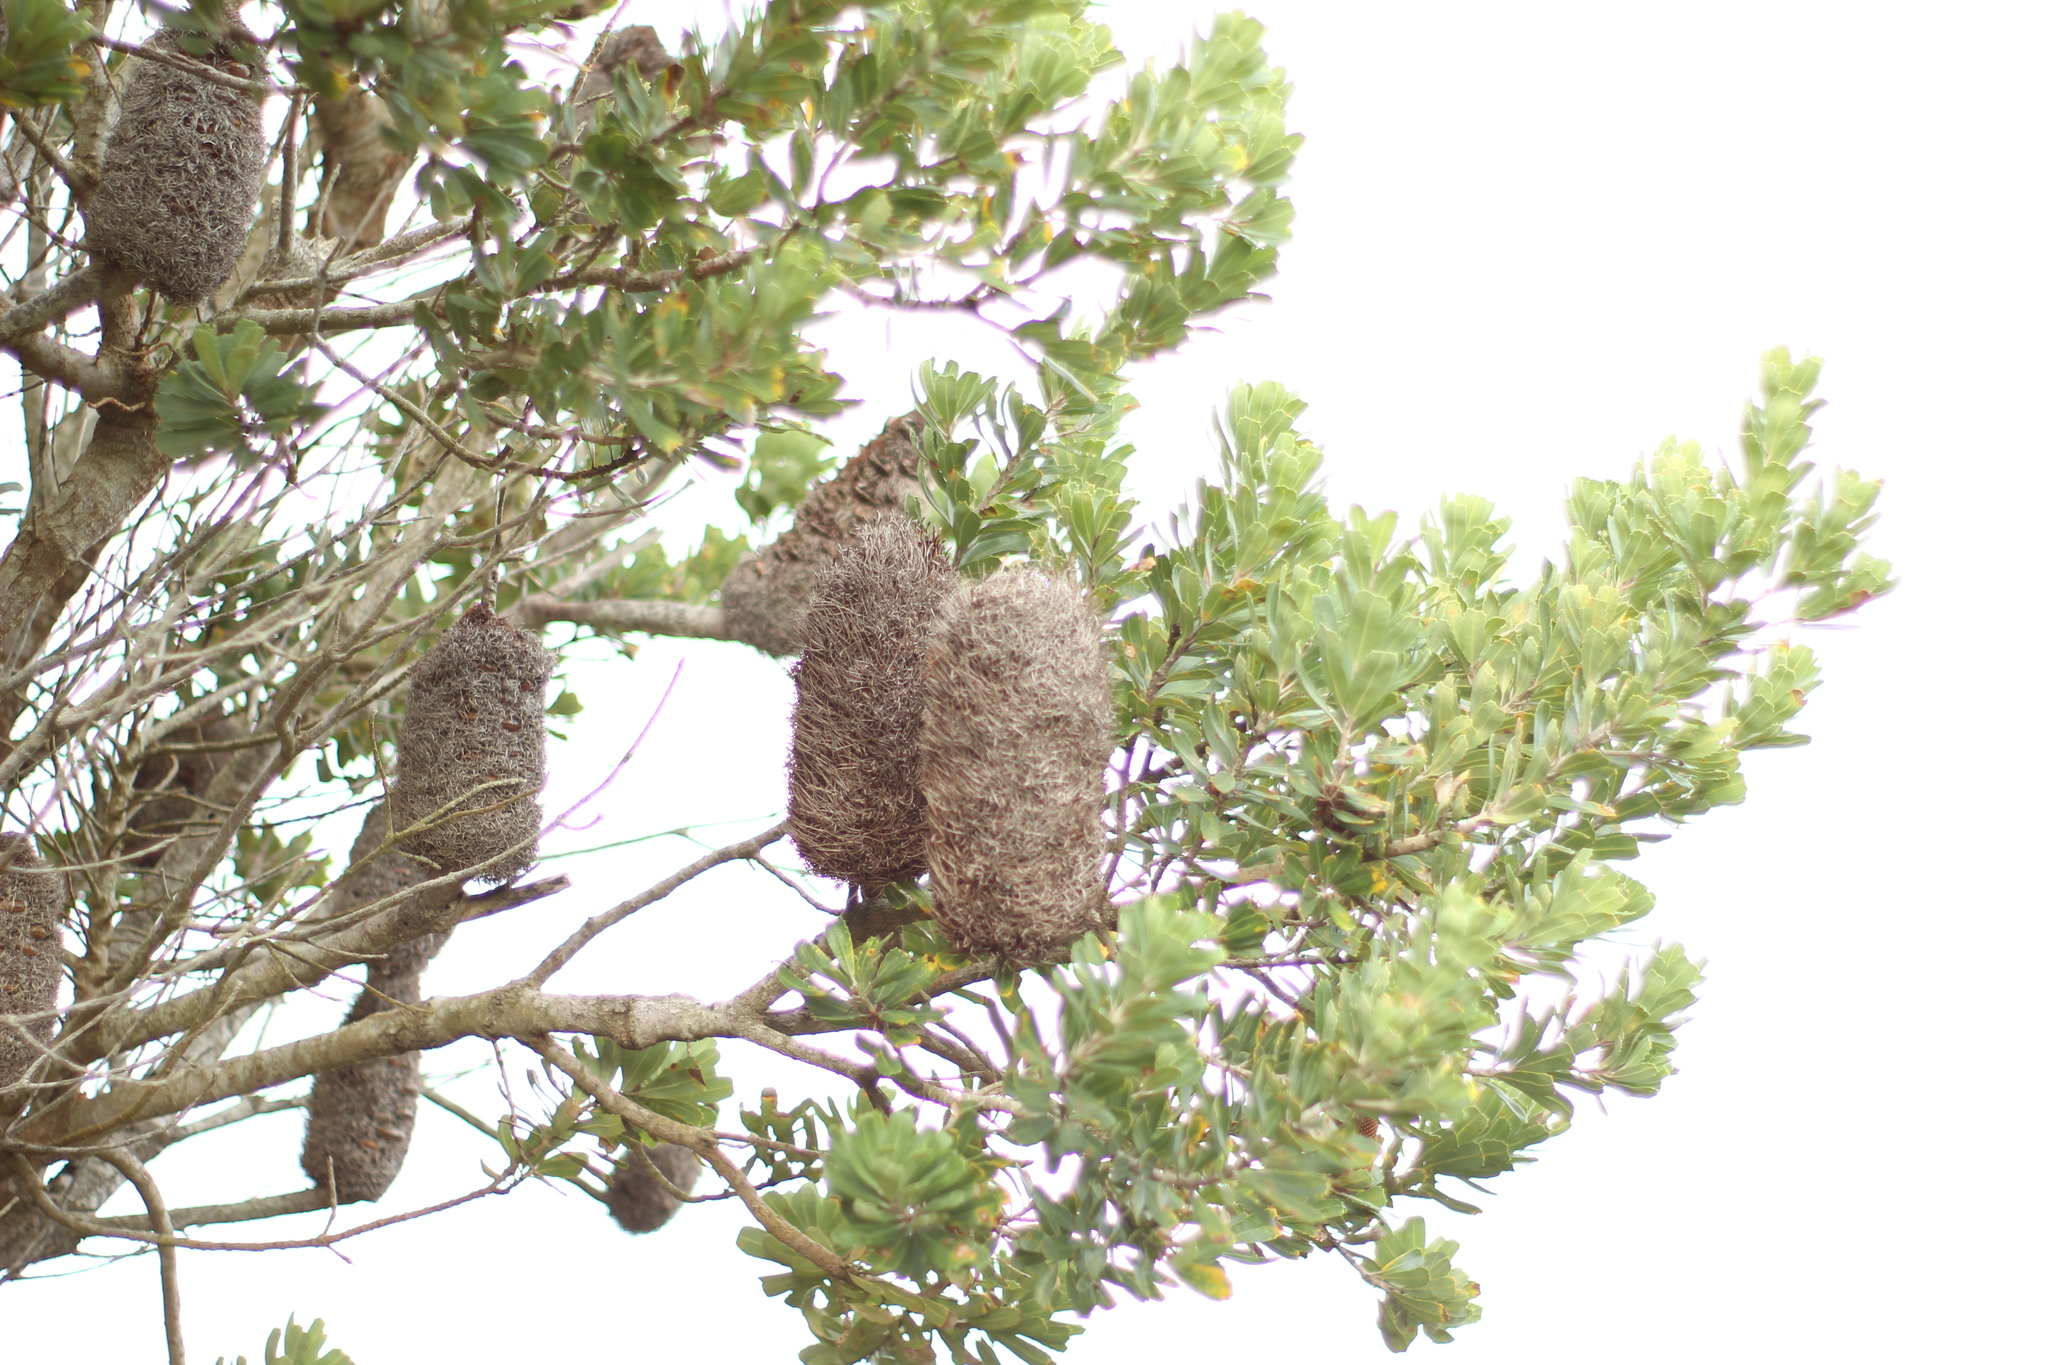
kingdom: Plantae
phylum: Tracheophyta
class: Magnoliopsida
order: Proteales
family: Proteaceae
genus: Banksia
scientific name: Banksia praemorsa
